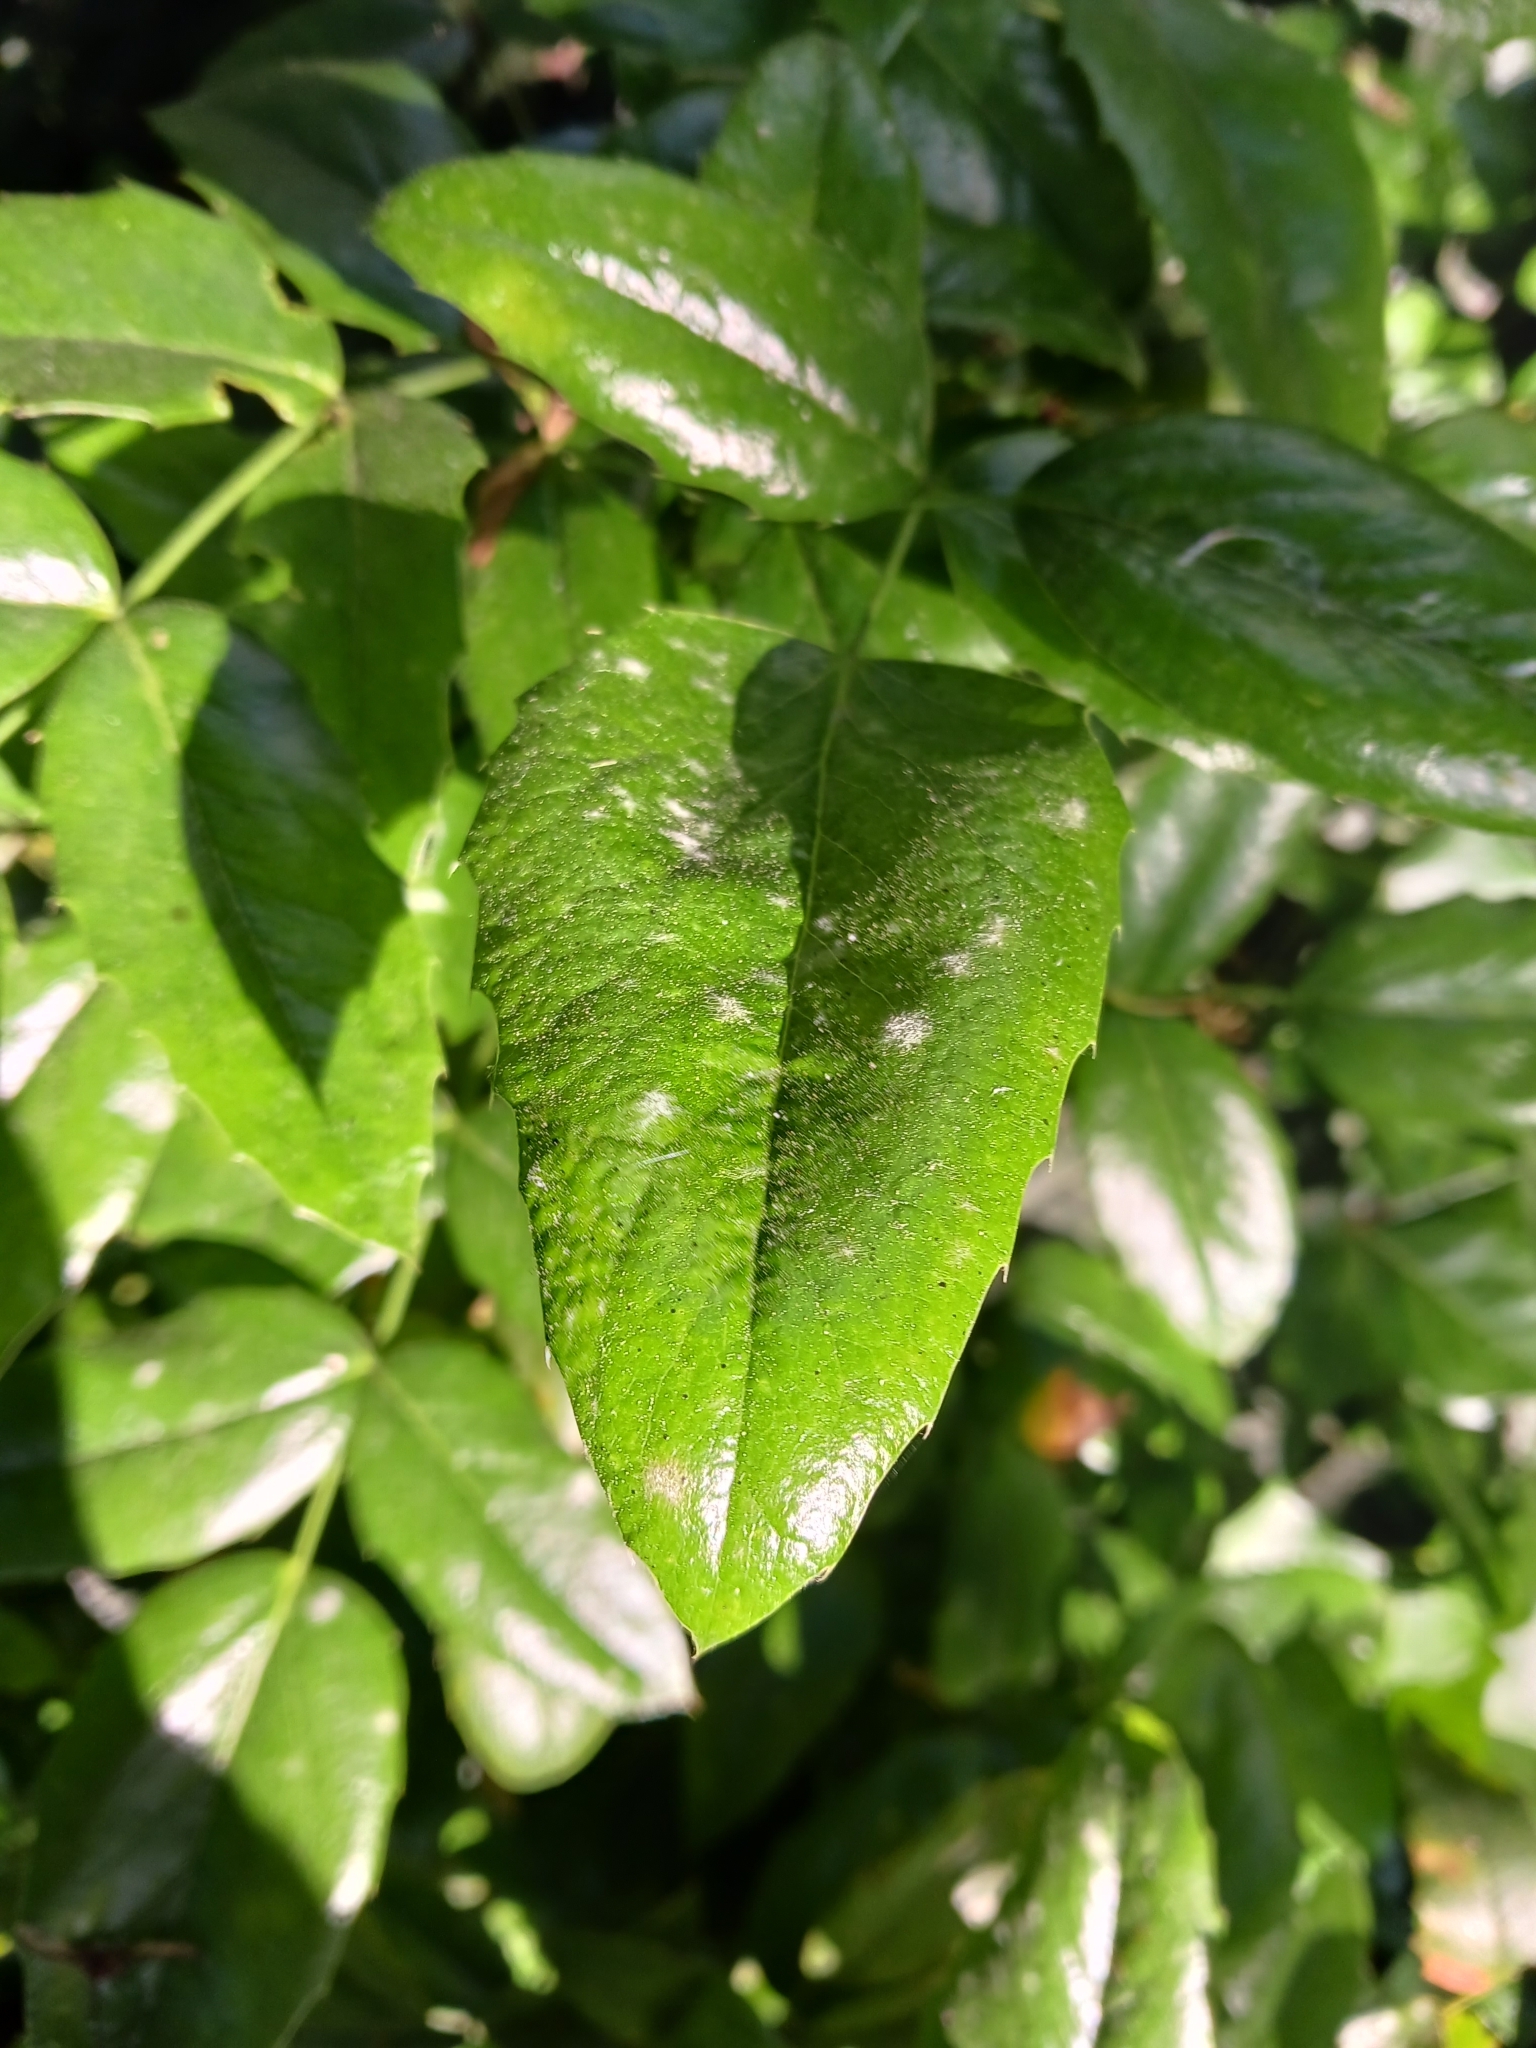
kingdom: Fungi
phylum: Ascomycota
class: Leotiomycetes
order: Helotiales
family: Erysiphaceae
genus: Erysiphe
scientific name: Erysiphe berberidis
